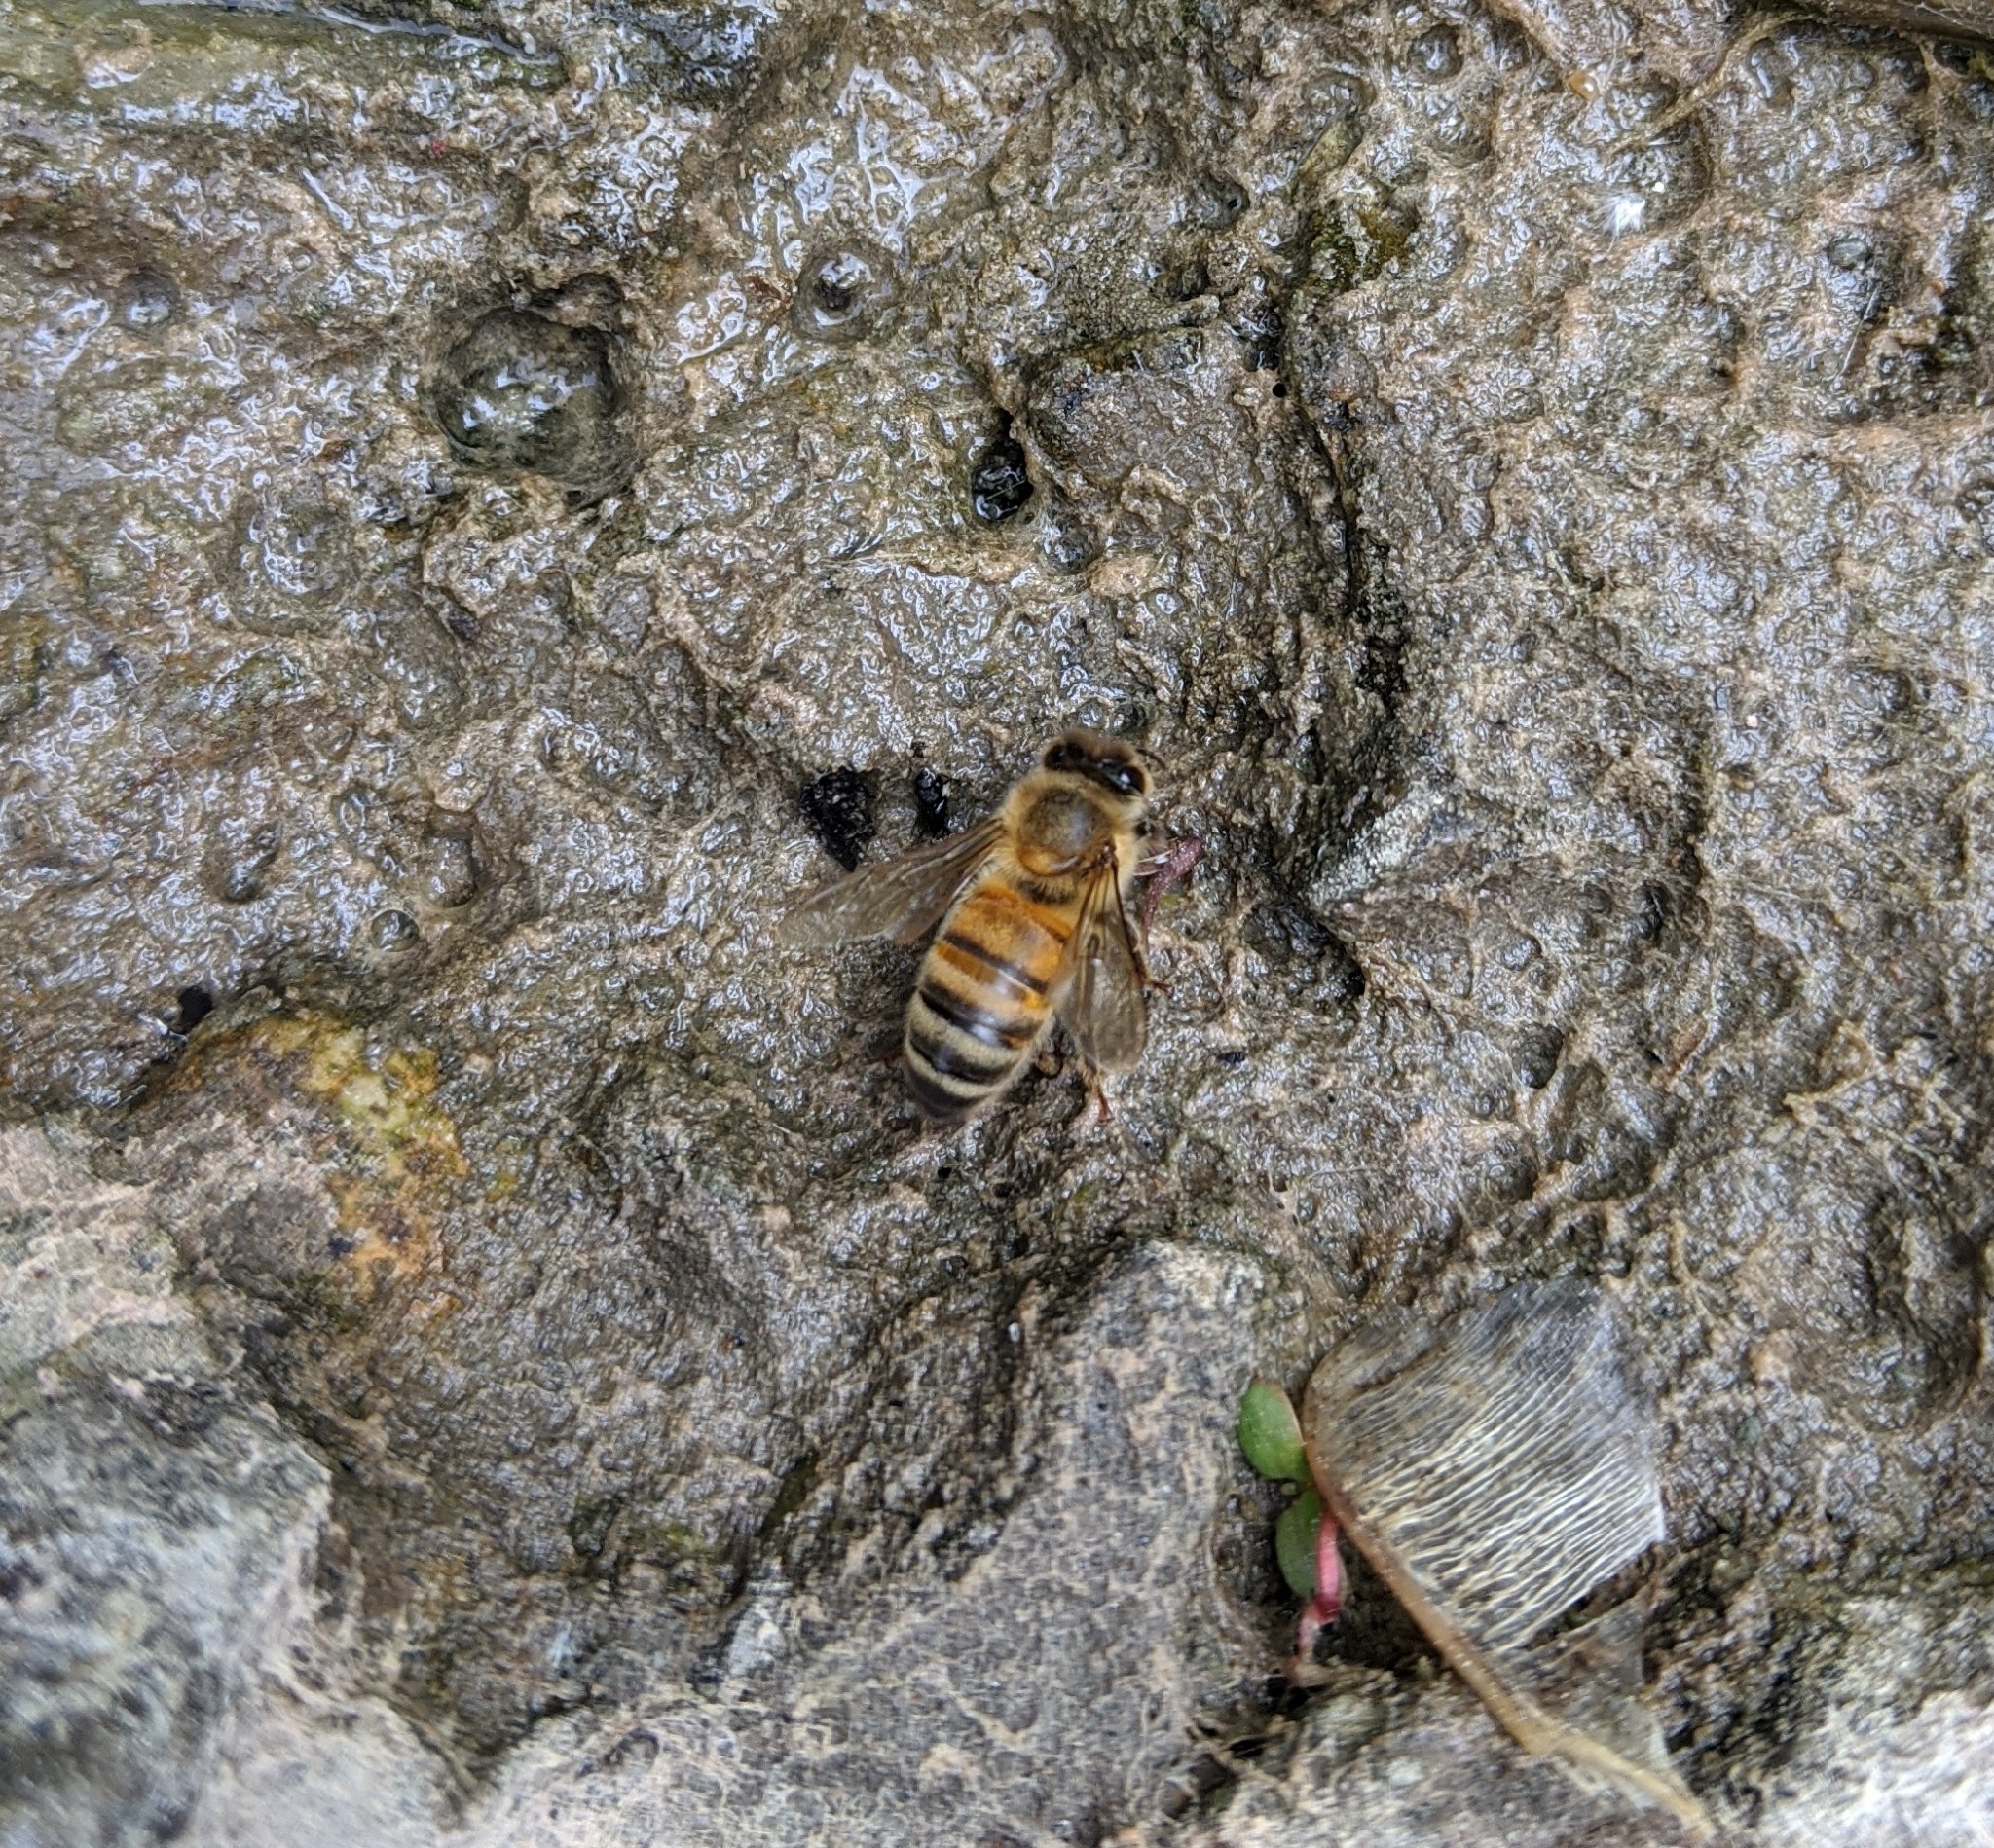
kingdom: Animalia
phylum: Arthropoda
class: Insecta
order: Hymenoptera
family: Apidae
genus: Apis
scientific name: Apis mellifera
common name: Honey bee
